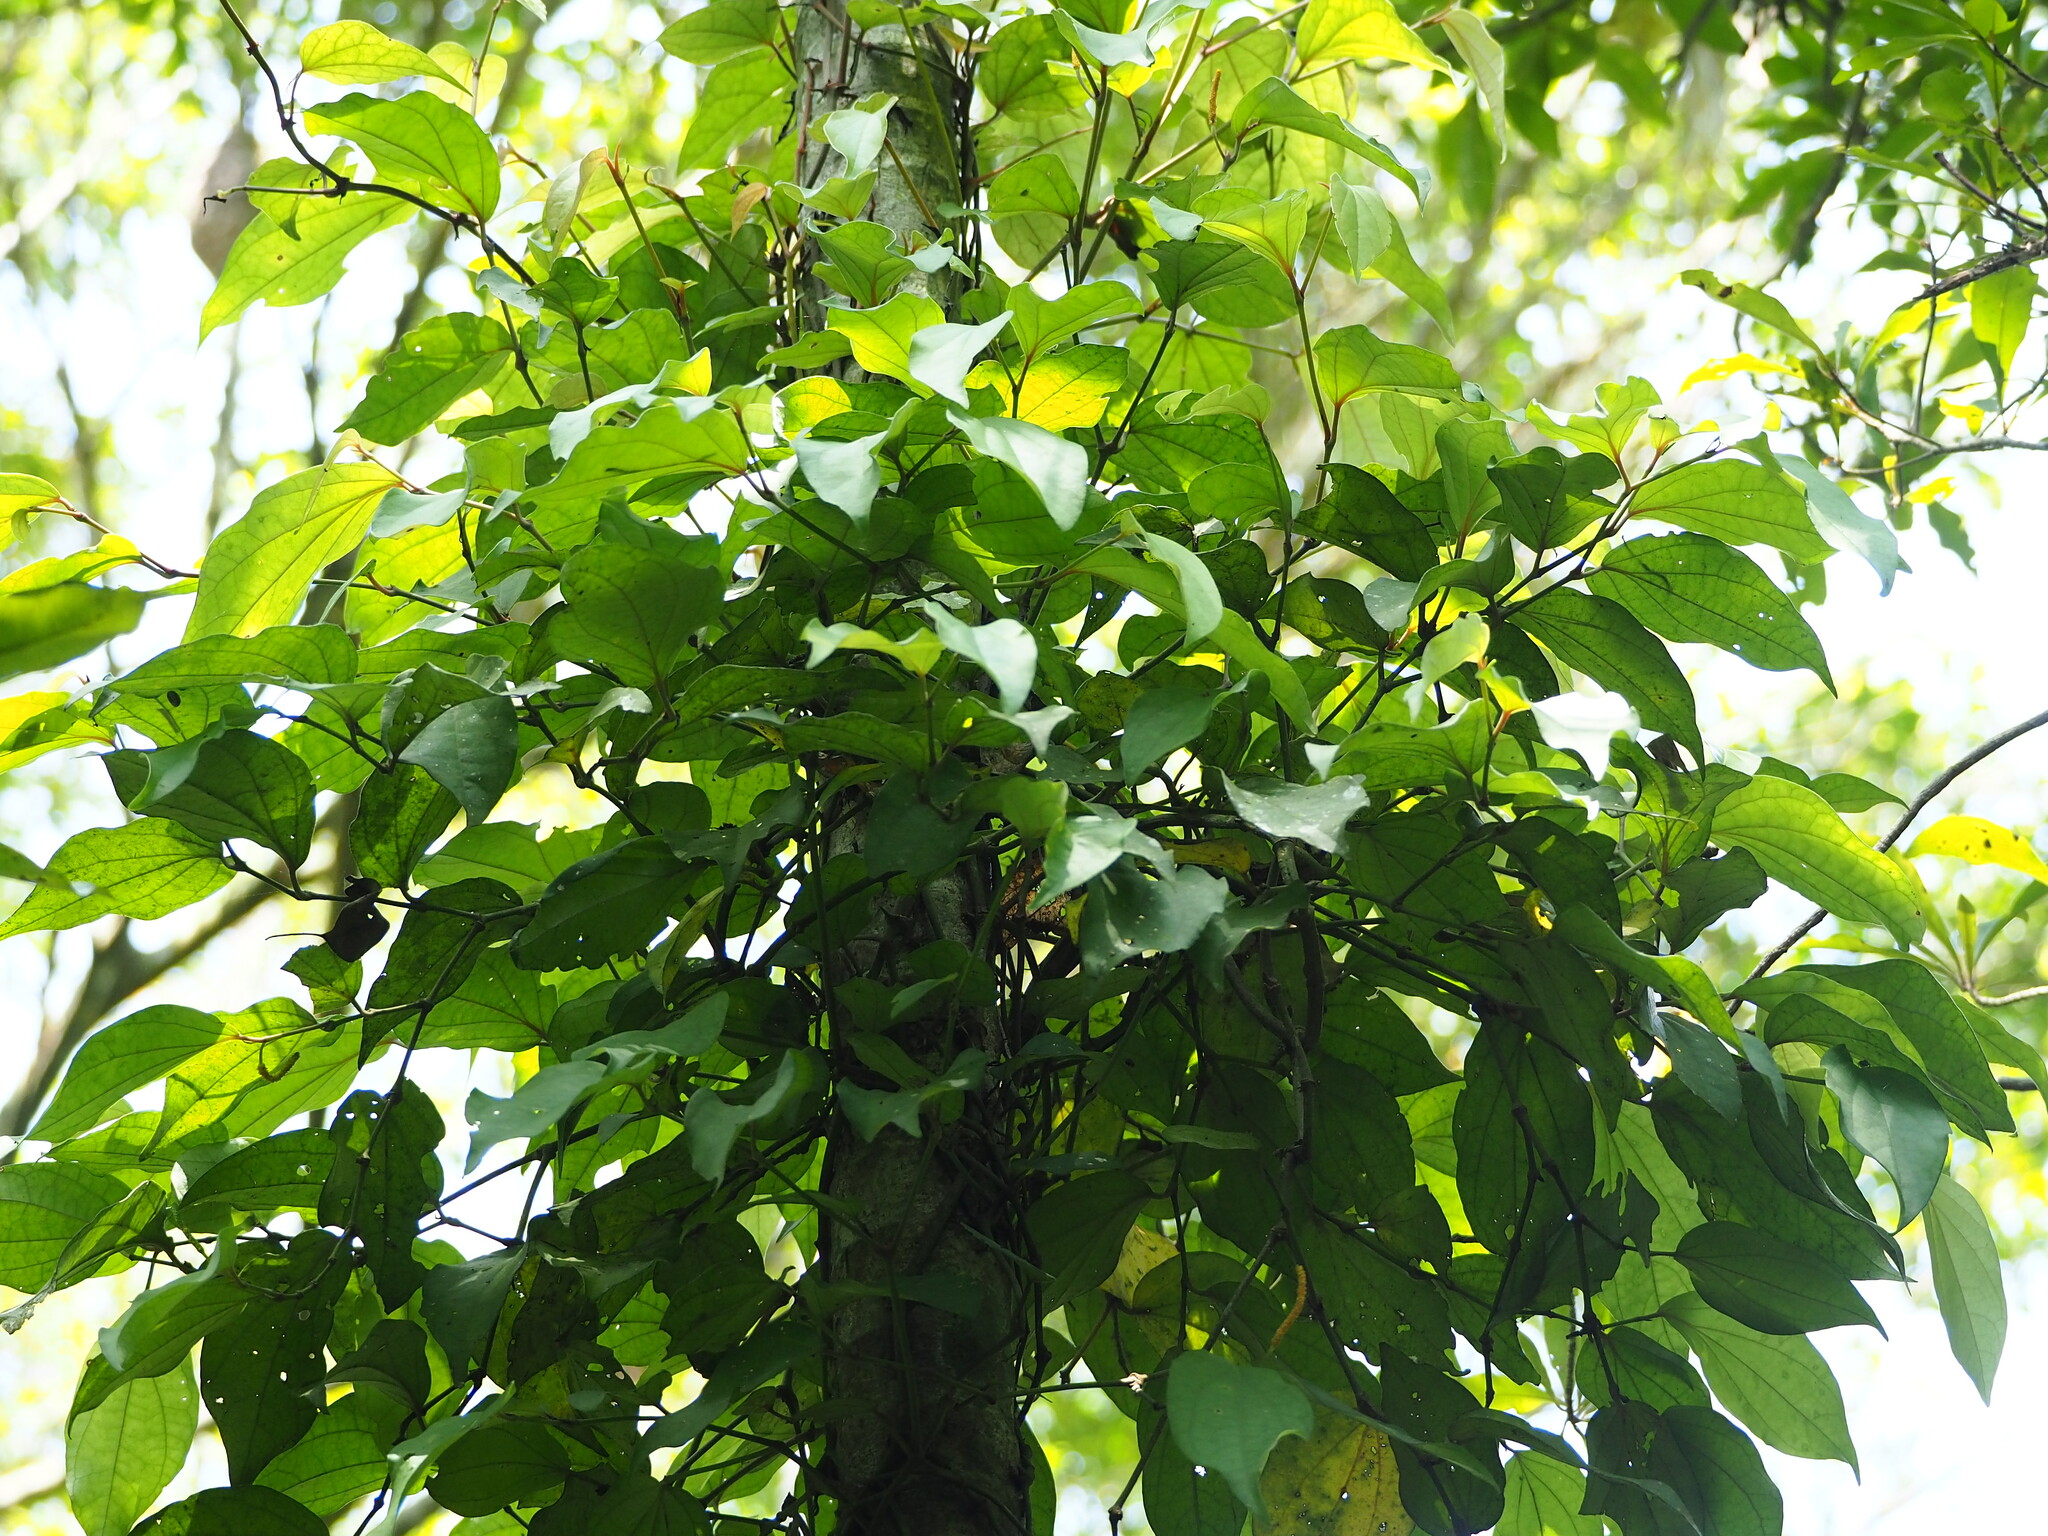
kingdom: Plantae
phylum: Tracheophyta
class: Magnoliopsida
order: Piperales
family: Piperaceae
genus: Piper
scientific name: Piper kadsura
